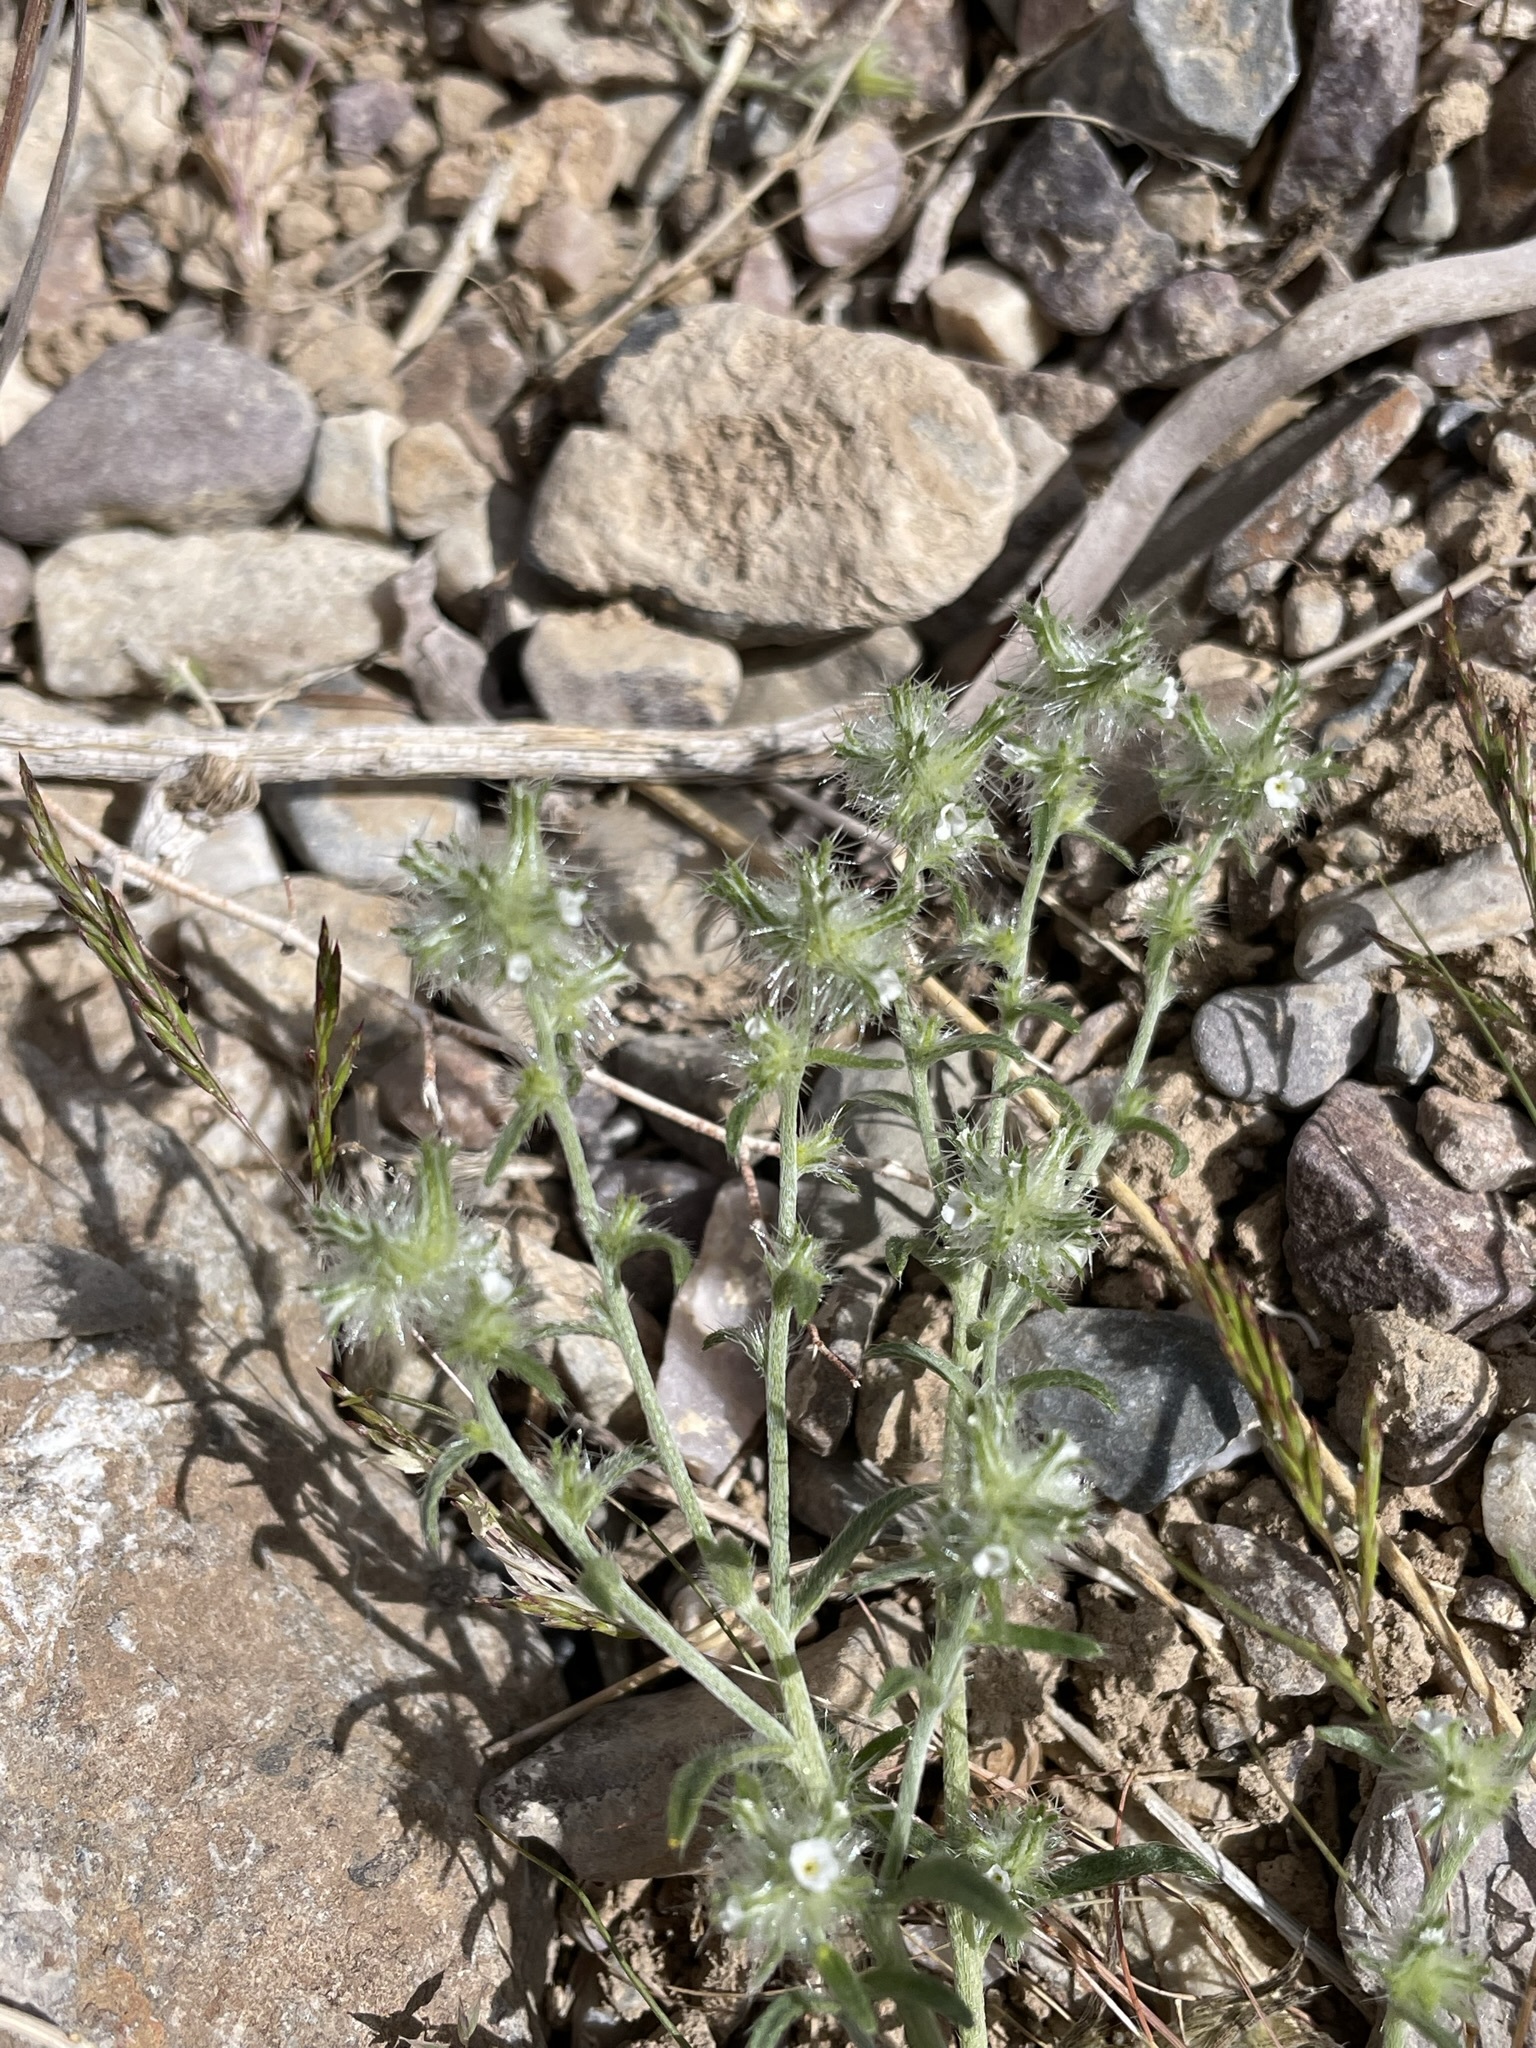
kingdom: Plantae
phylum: Tracheophyta
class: Magnoliopsida
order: Boraginales
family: Boraginaceae
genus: Cryptantha
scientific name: Cryptantha nevadensis
